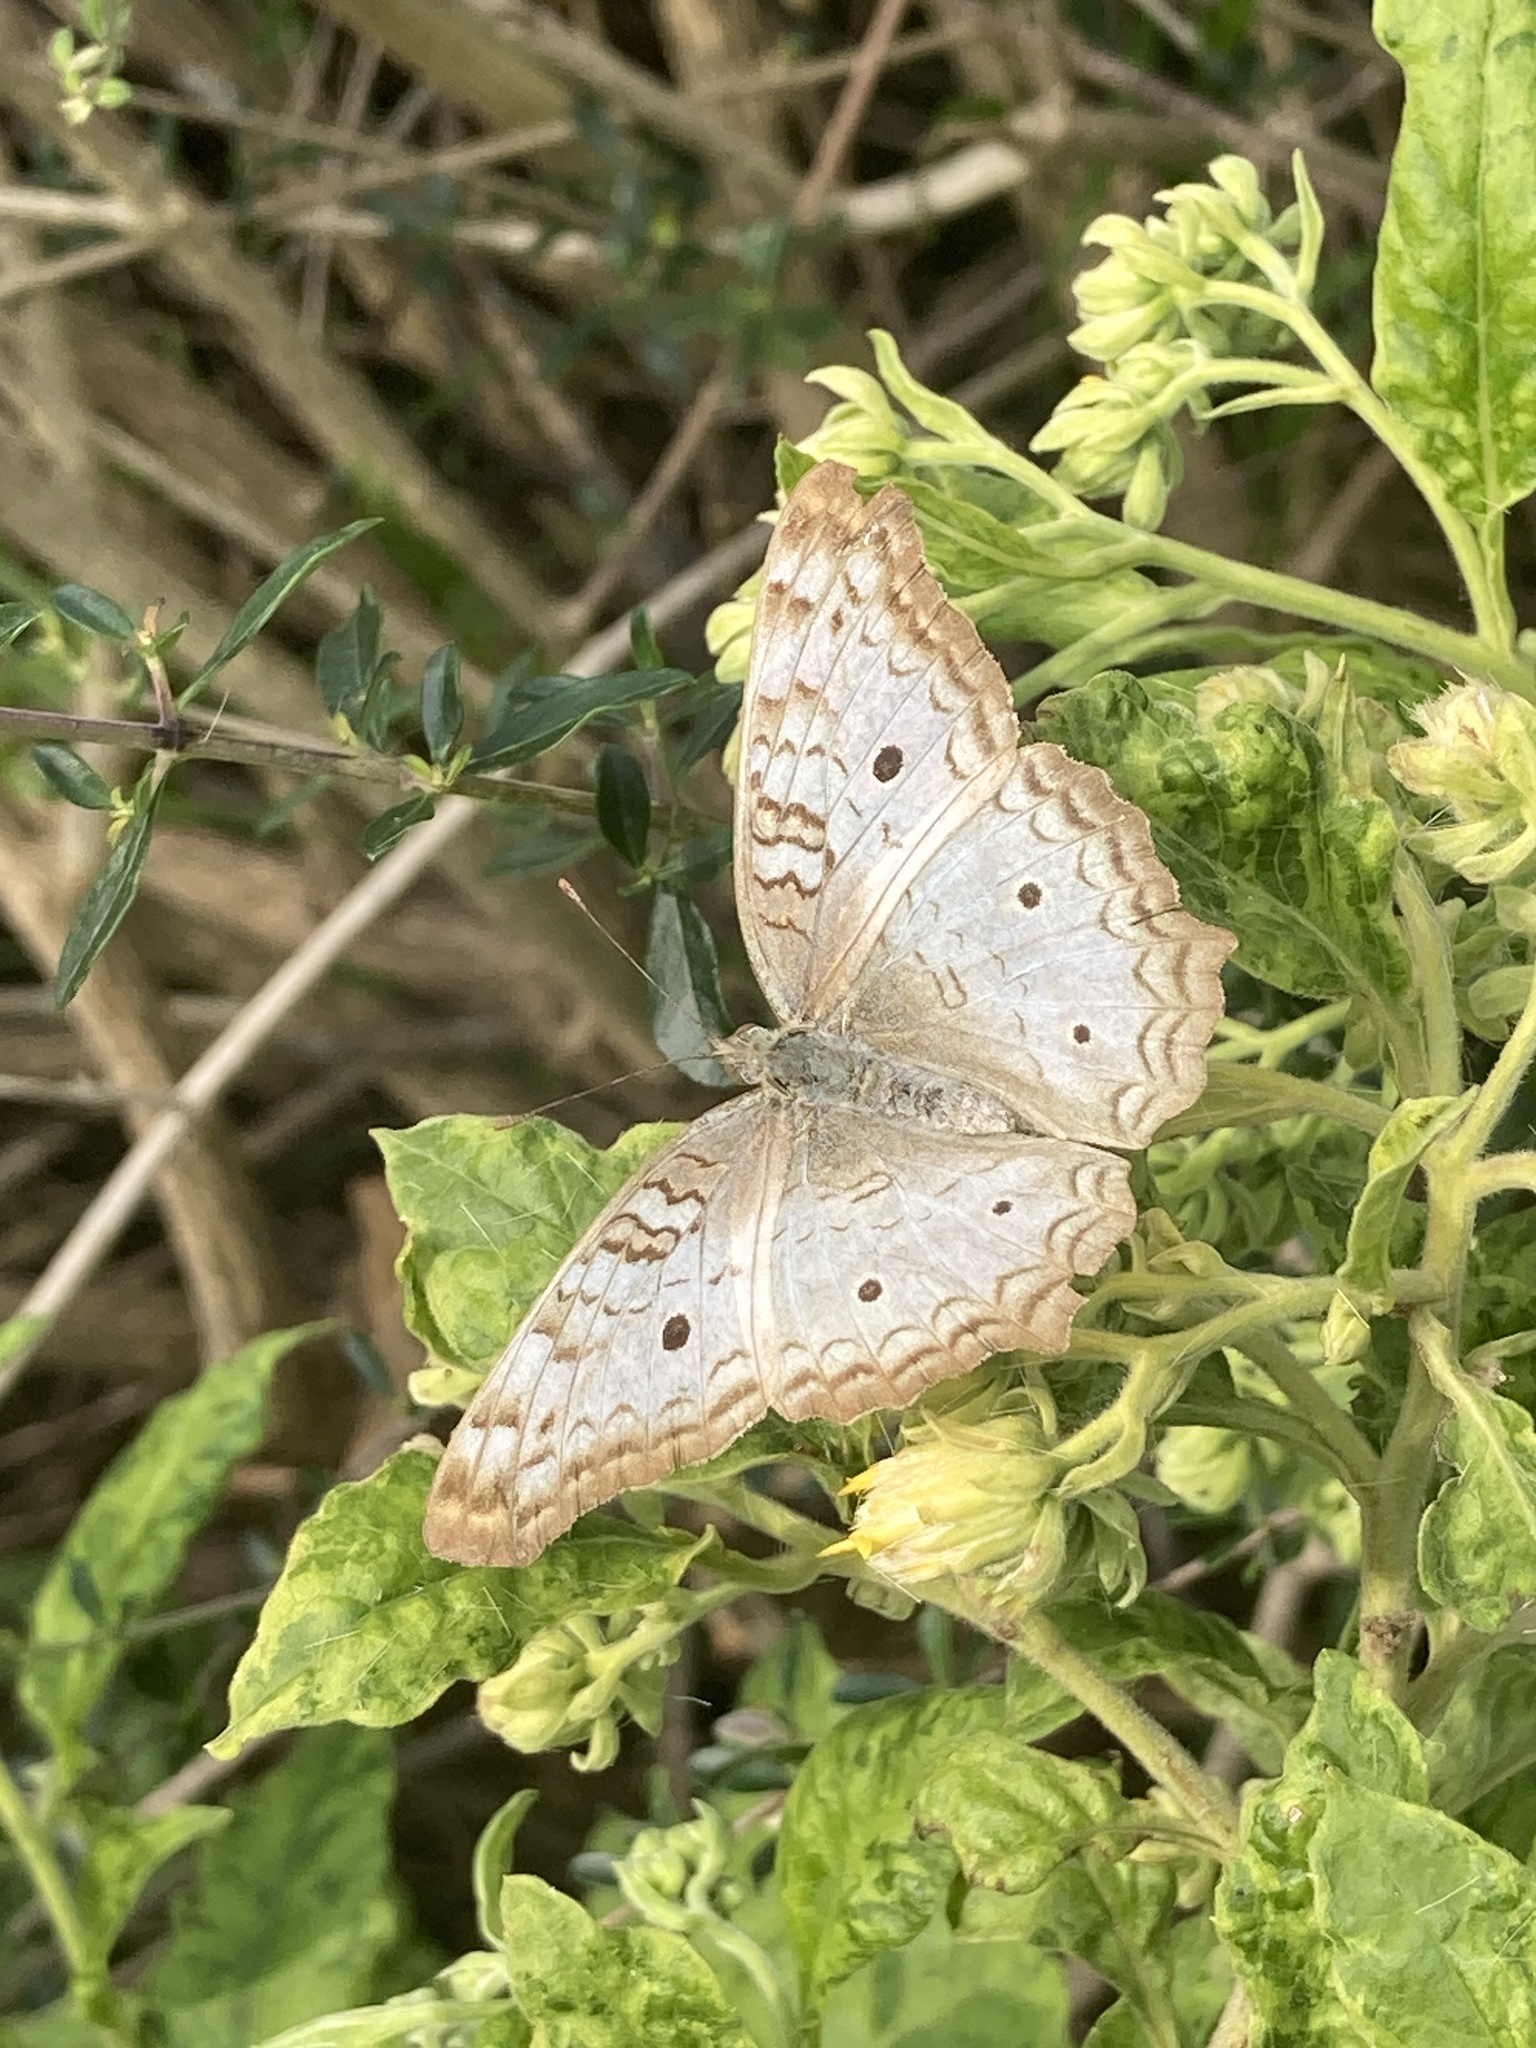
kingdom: Animalia
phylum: Arthropoda
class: Insecta
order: Lepidoptera
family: Nymphalidae
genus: Anartia
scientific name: Anartia jatrophae
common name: White peacock
